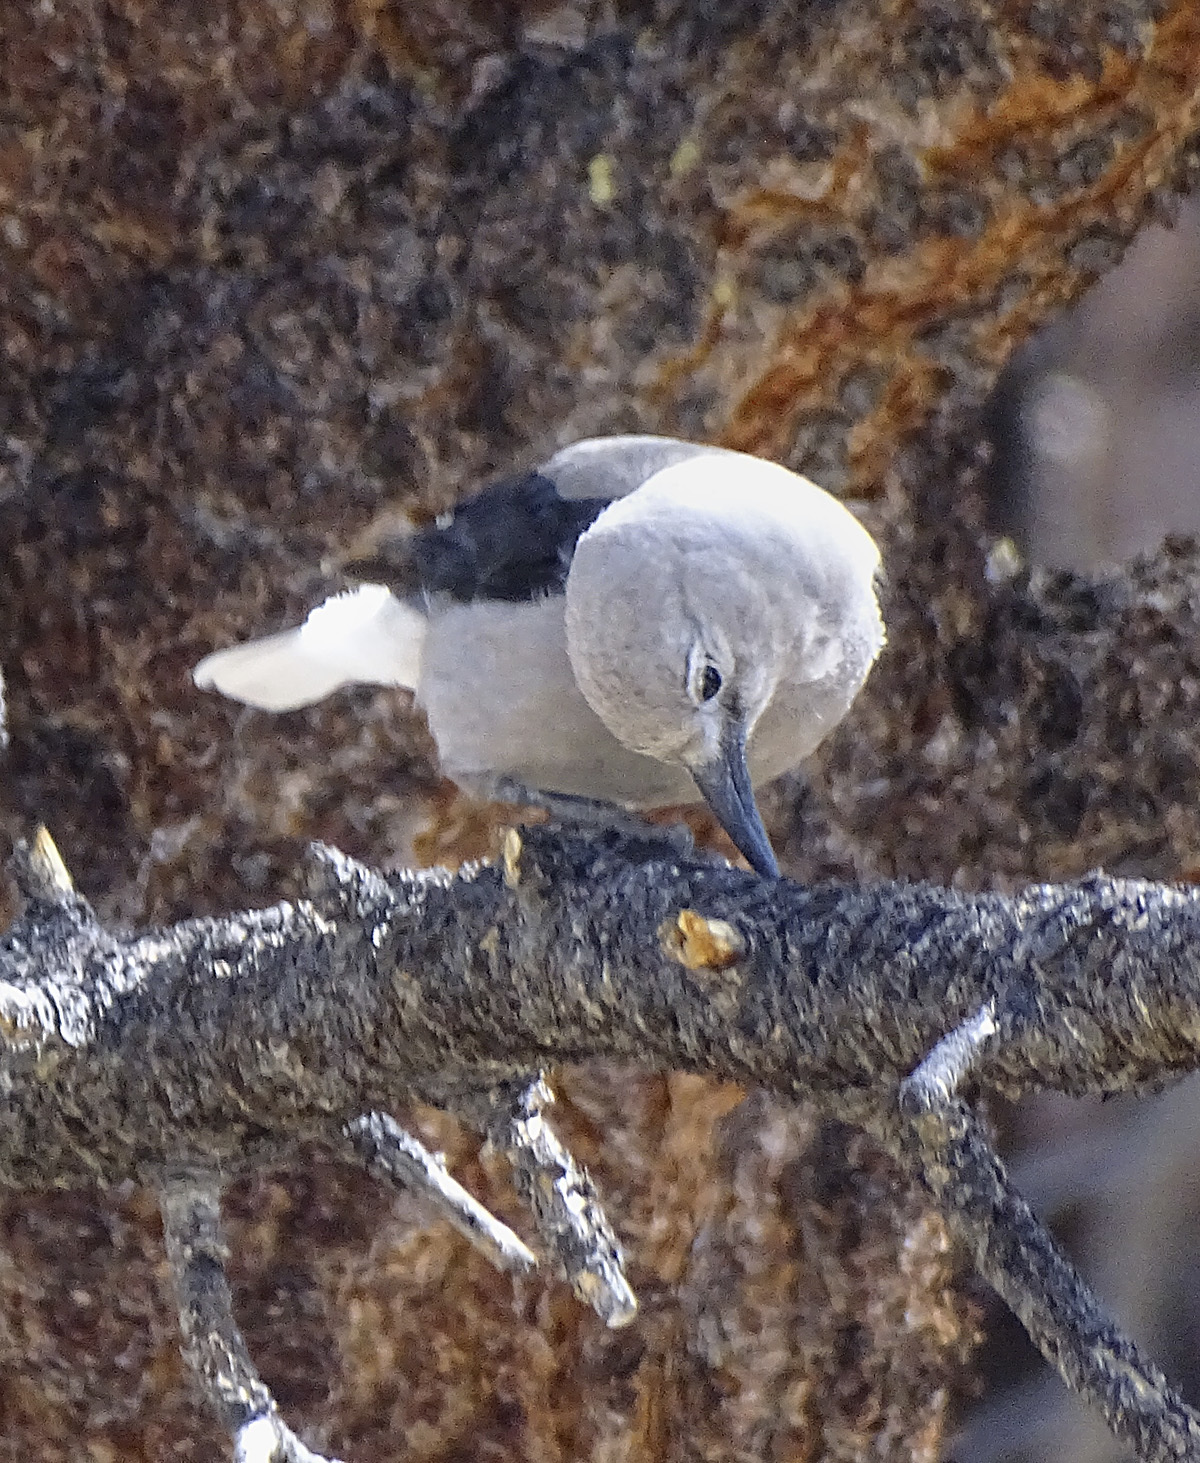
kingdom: Animalia
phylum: Chordata
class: Aves
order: Passeriformes
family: Corvidae
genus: Nucifraga
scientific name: Nucifraga columbiana
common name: Clark's nutcracker
